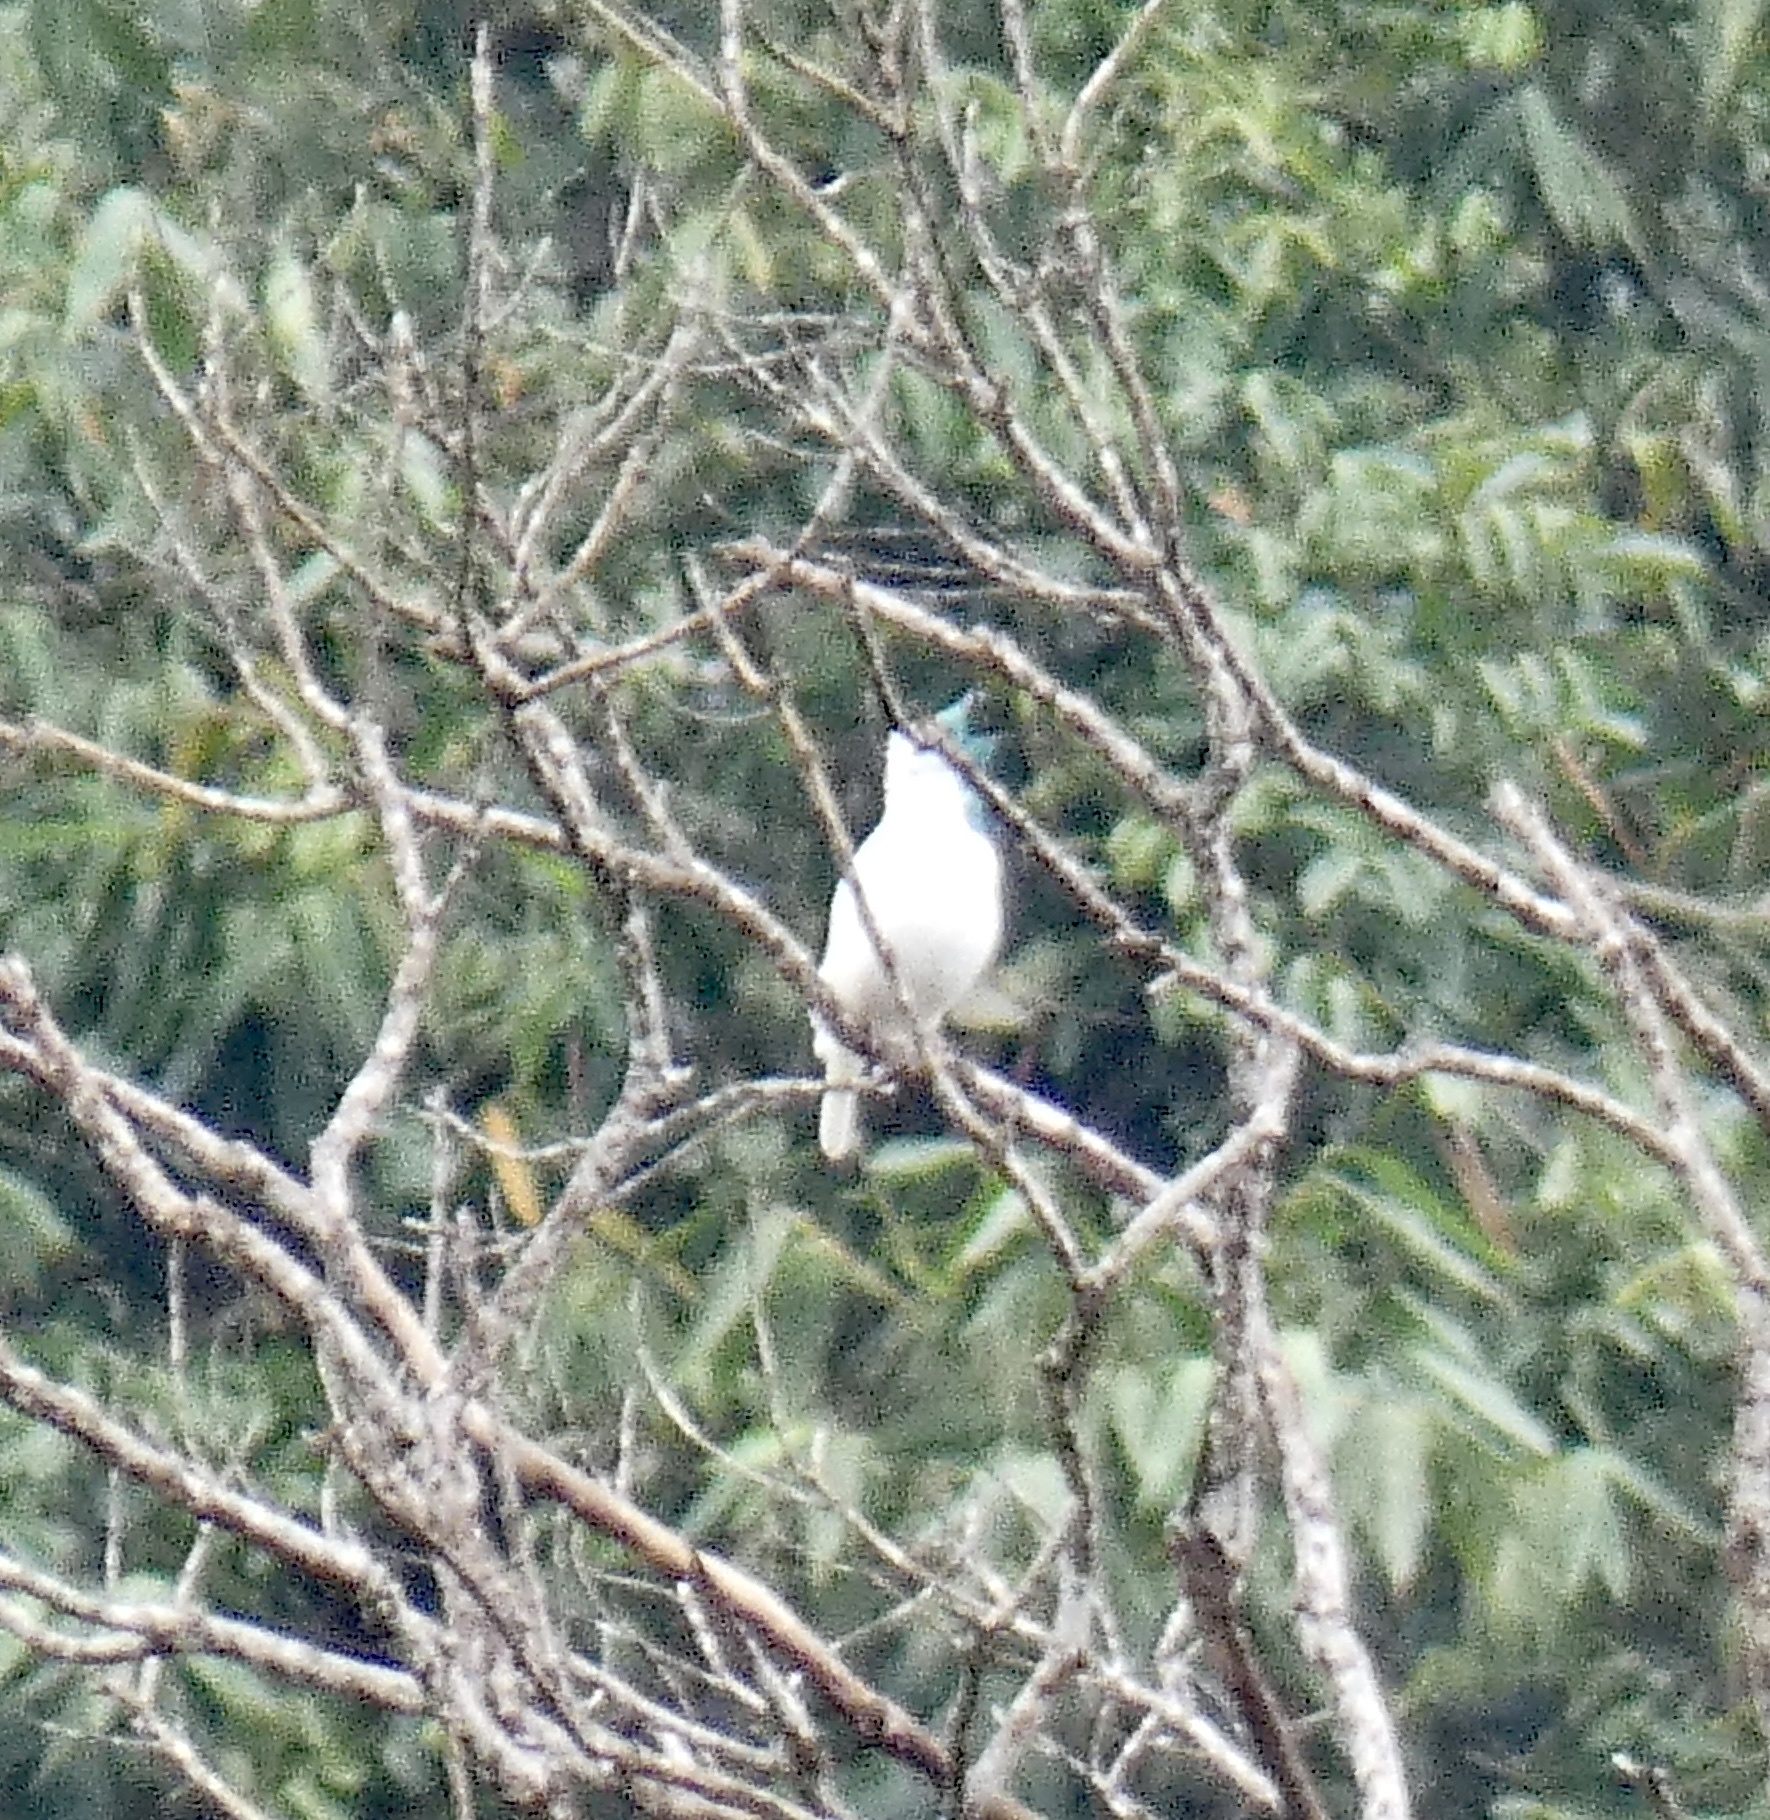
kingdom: Animalia
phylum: Chordata
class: Aves
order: Passeriformes
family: Cotingidae
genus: Procnias
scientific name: Procnias nudicollis
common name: Bare-throated bellbird
